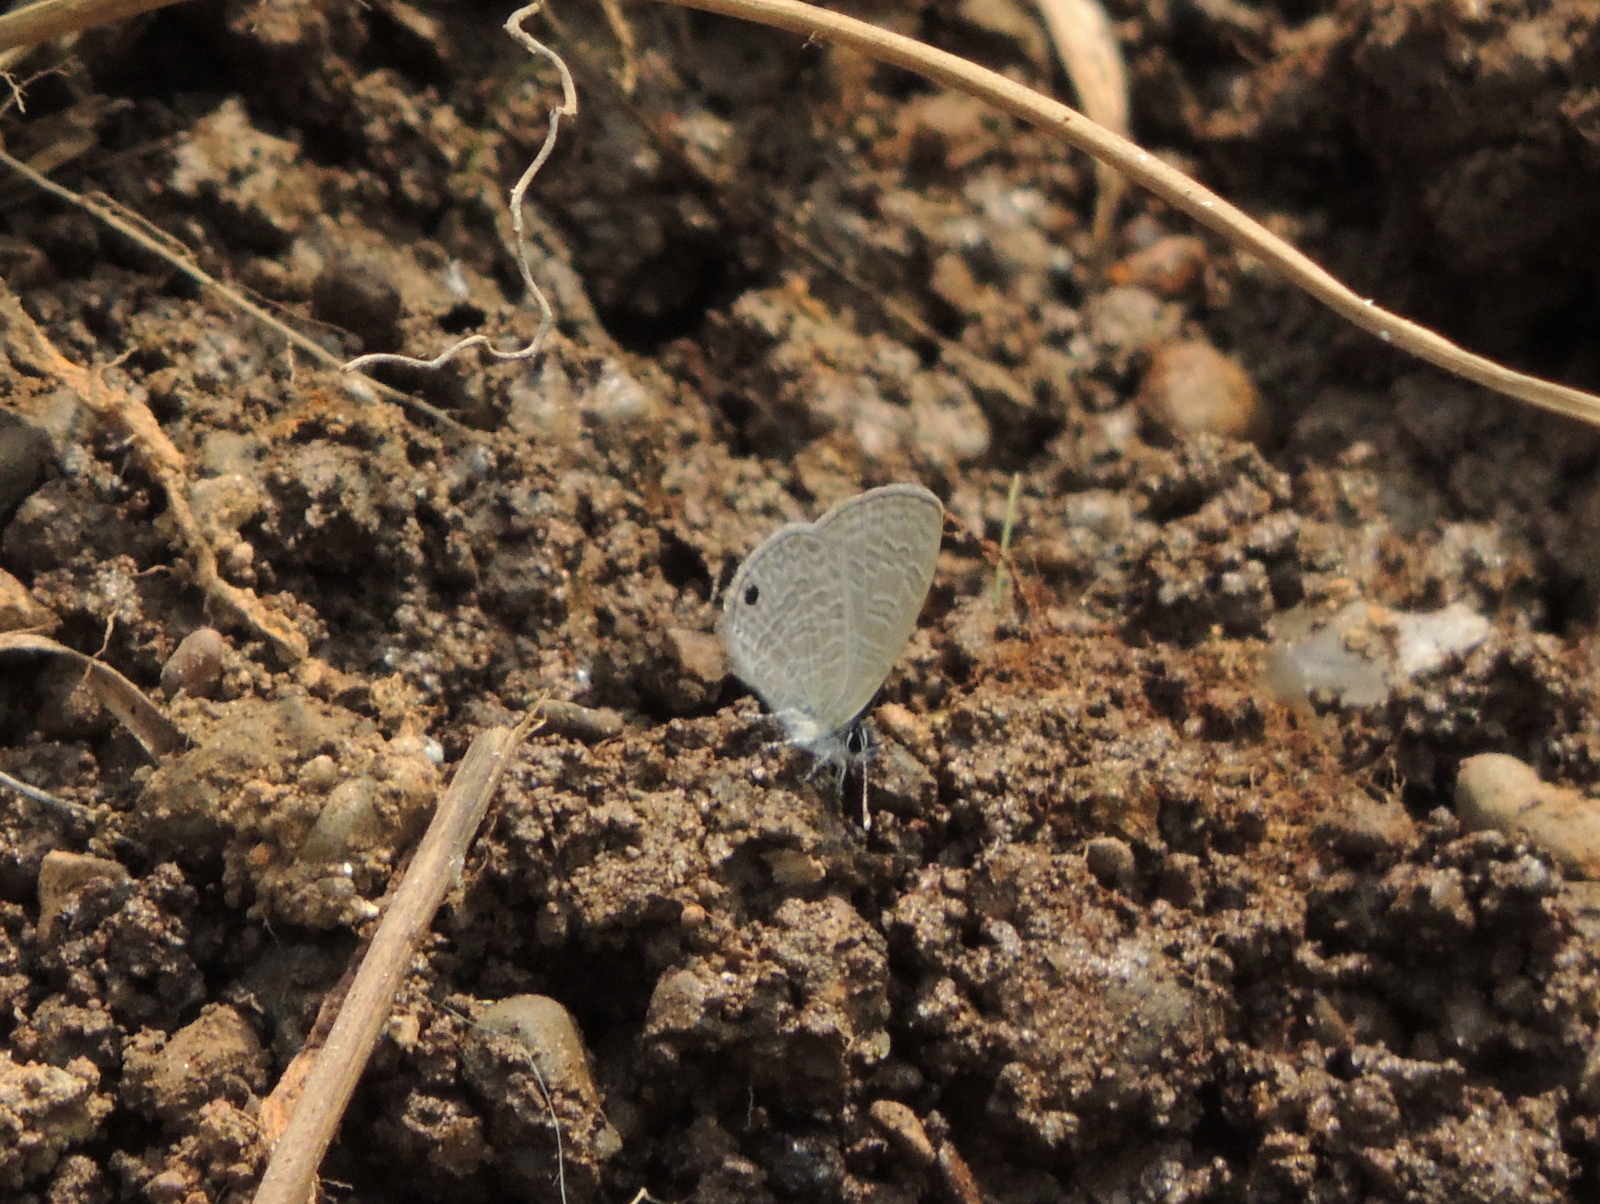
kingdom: Animalia
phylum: Arthropoda
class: Insecta
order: Lepidoptera
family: Lycaenidae
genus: Prosotas
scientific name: Prosotas dubiosa
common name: Tailless lineblue
